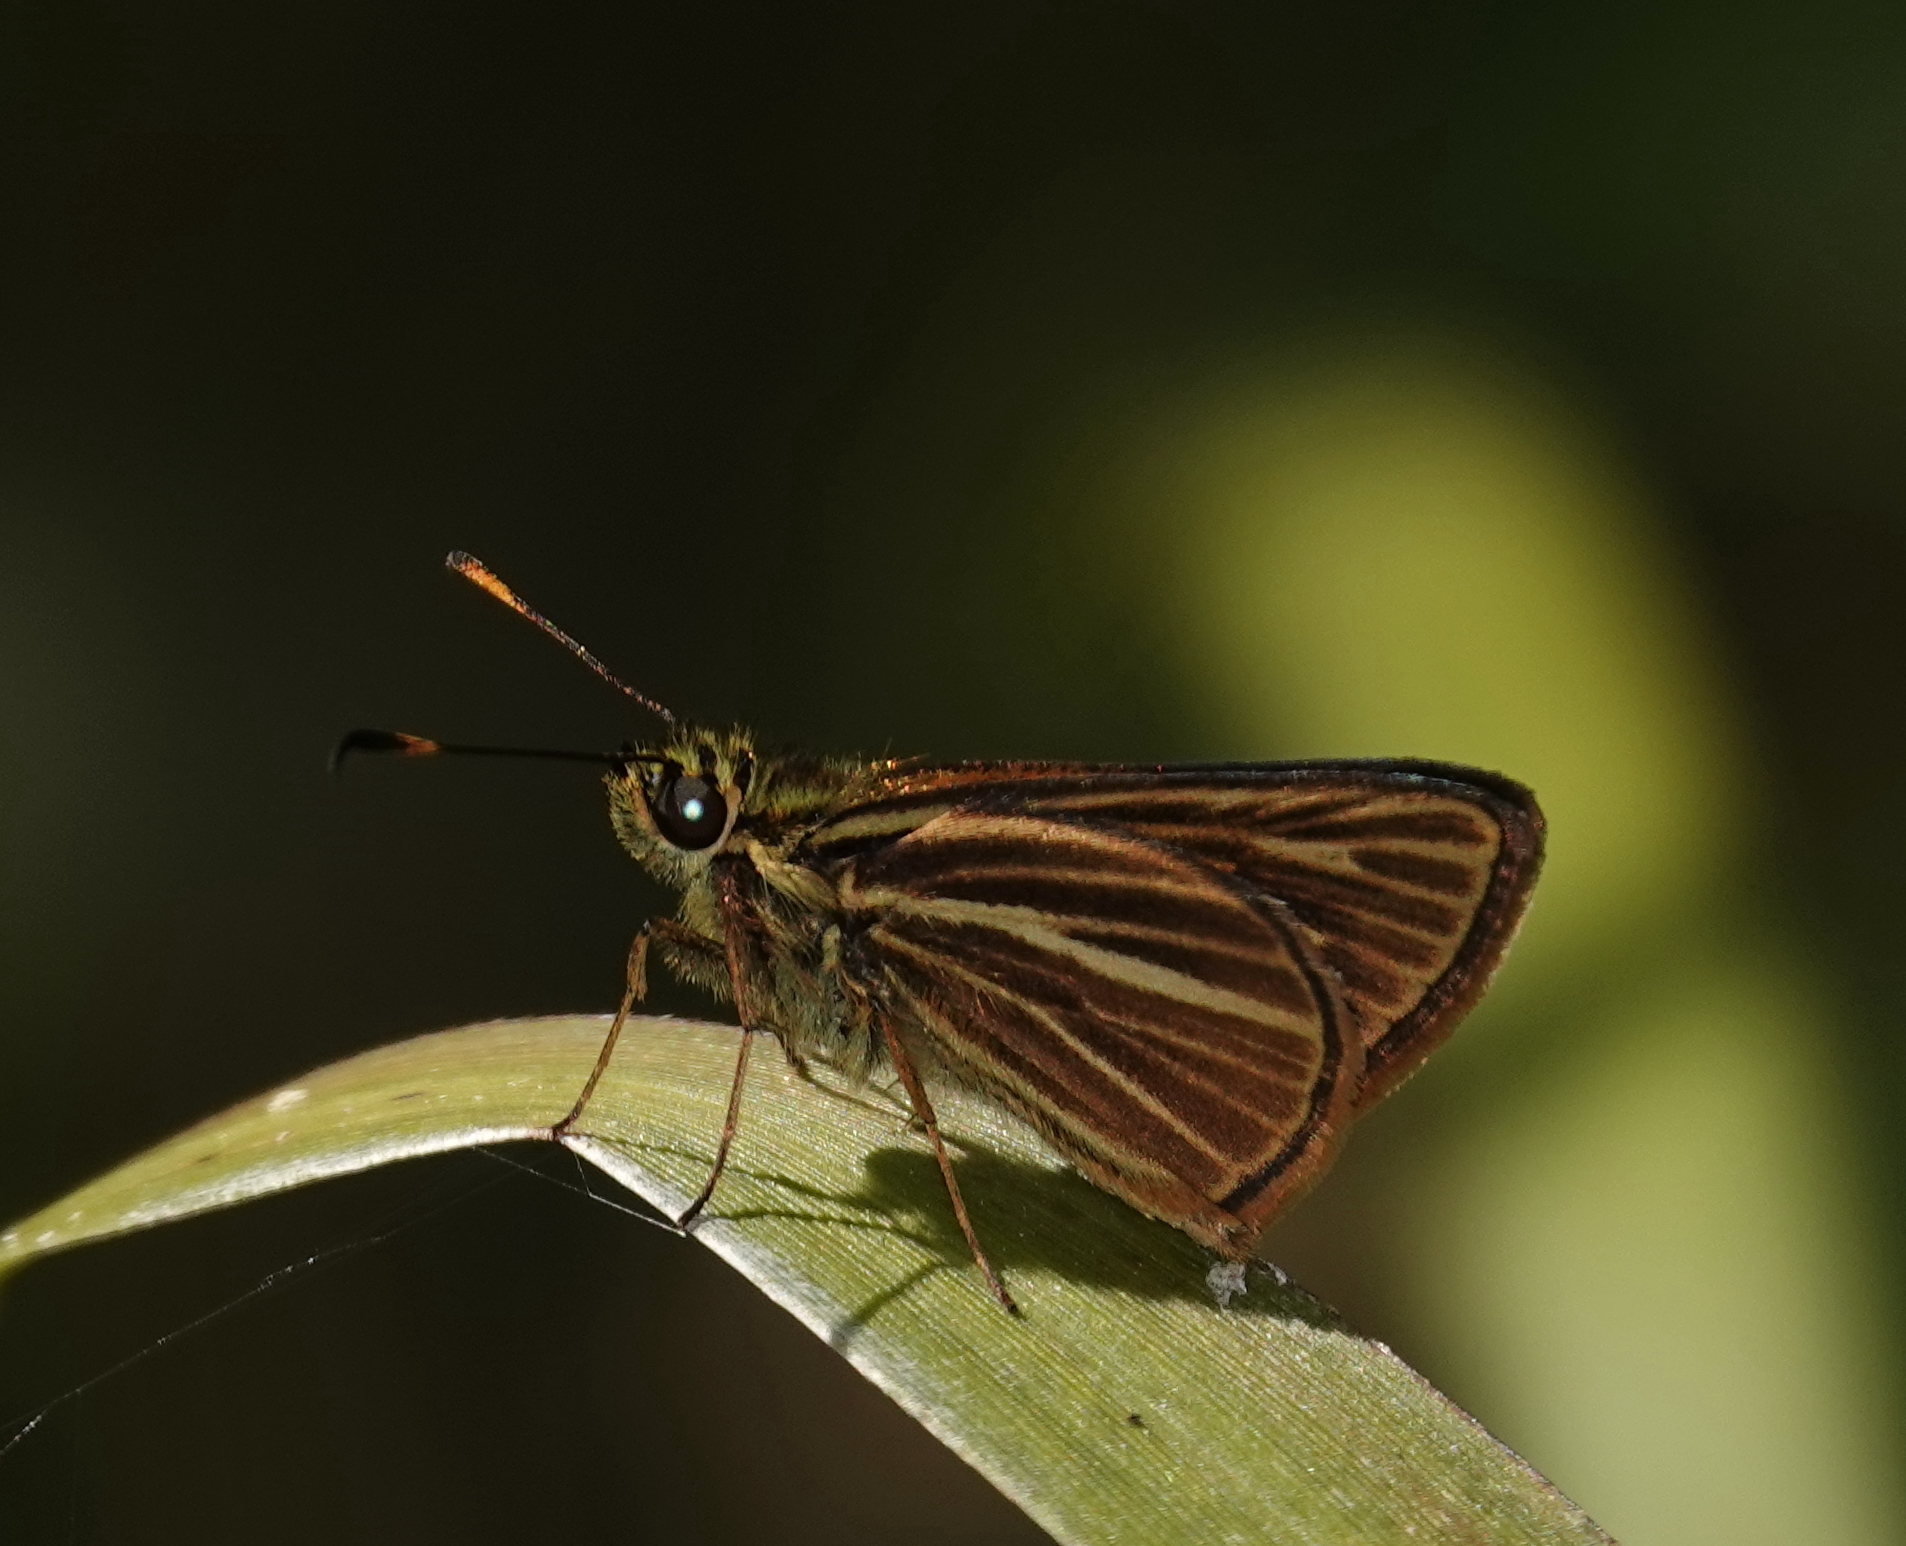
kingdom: Animalia
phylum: Arthropoda
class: Insecta
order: Lepidoptera
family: Hesperiidae
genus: Parphorus
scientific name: Parphorus sapala
